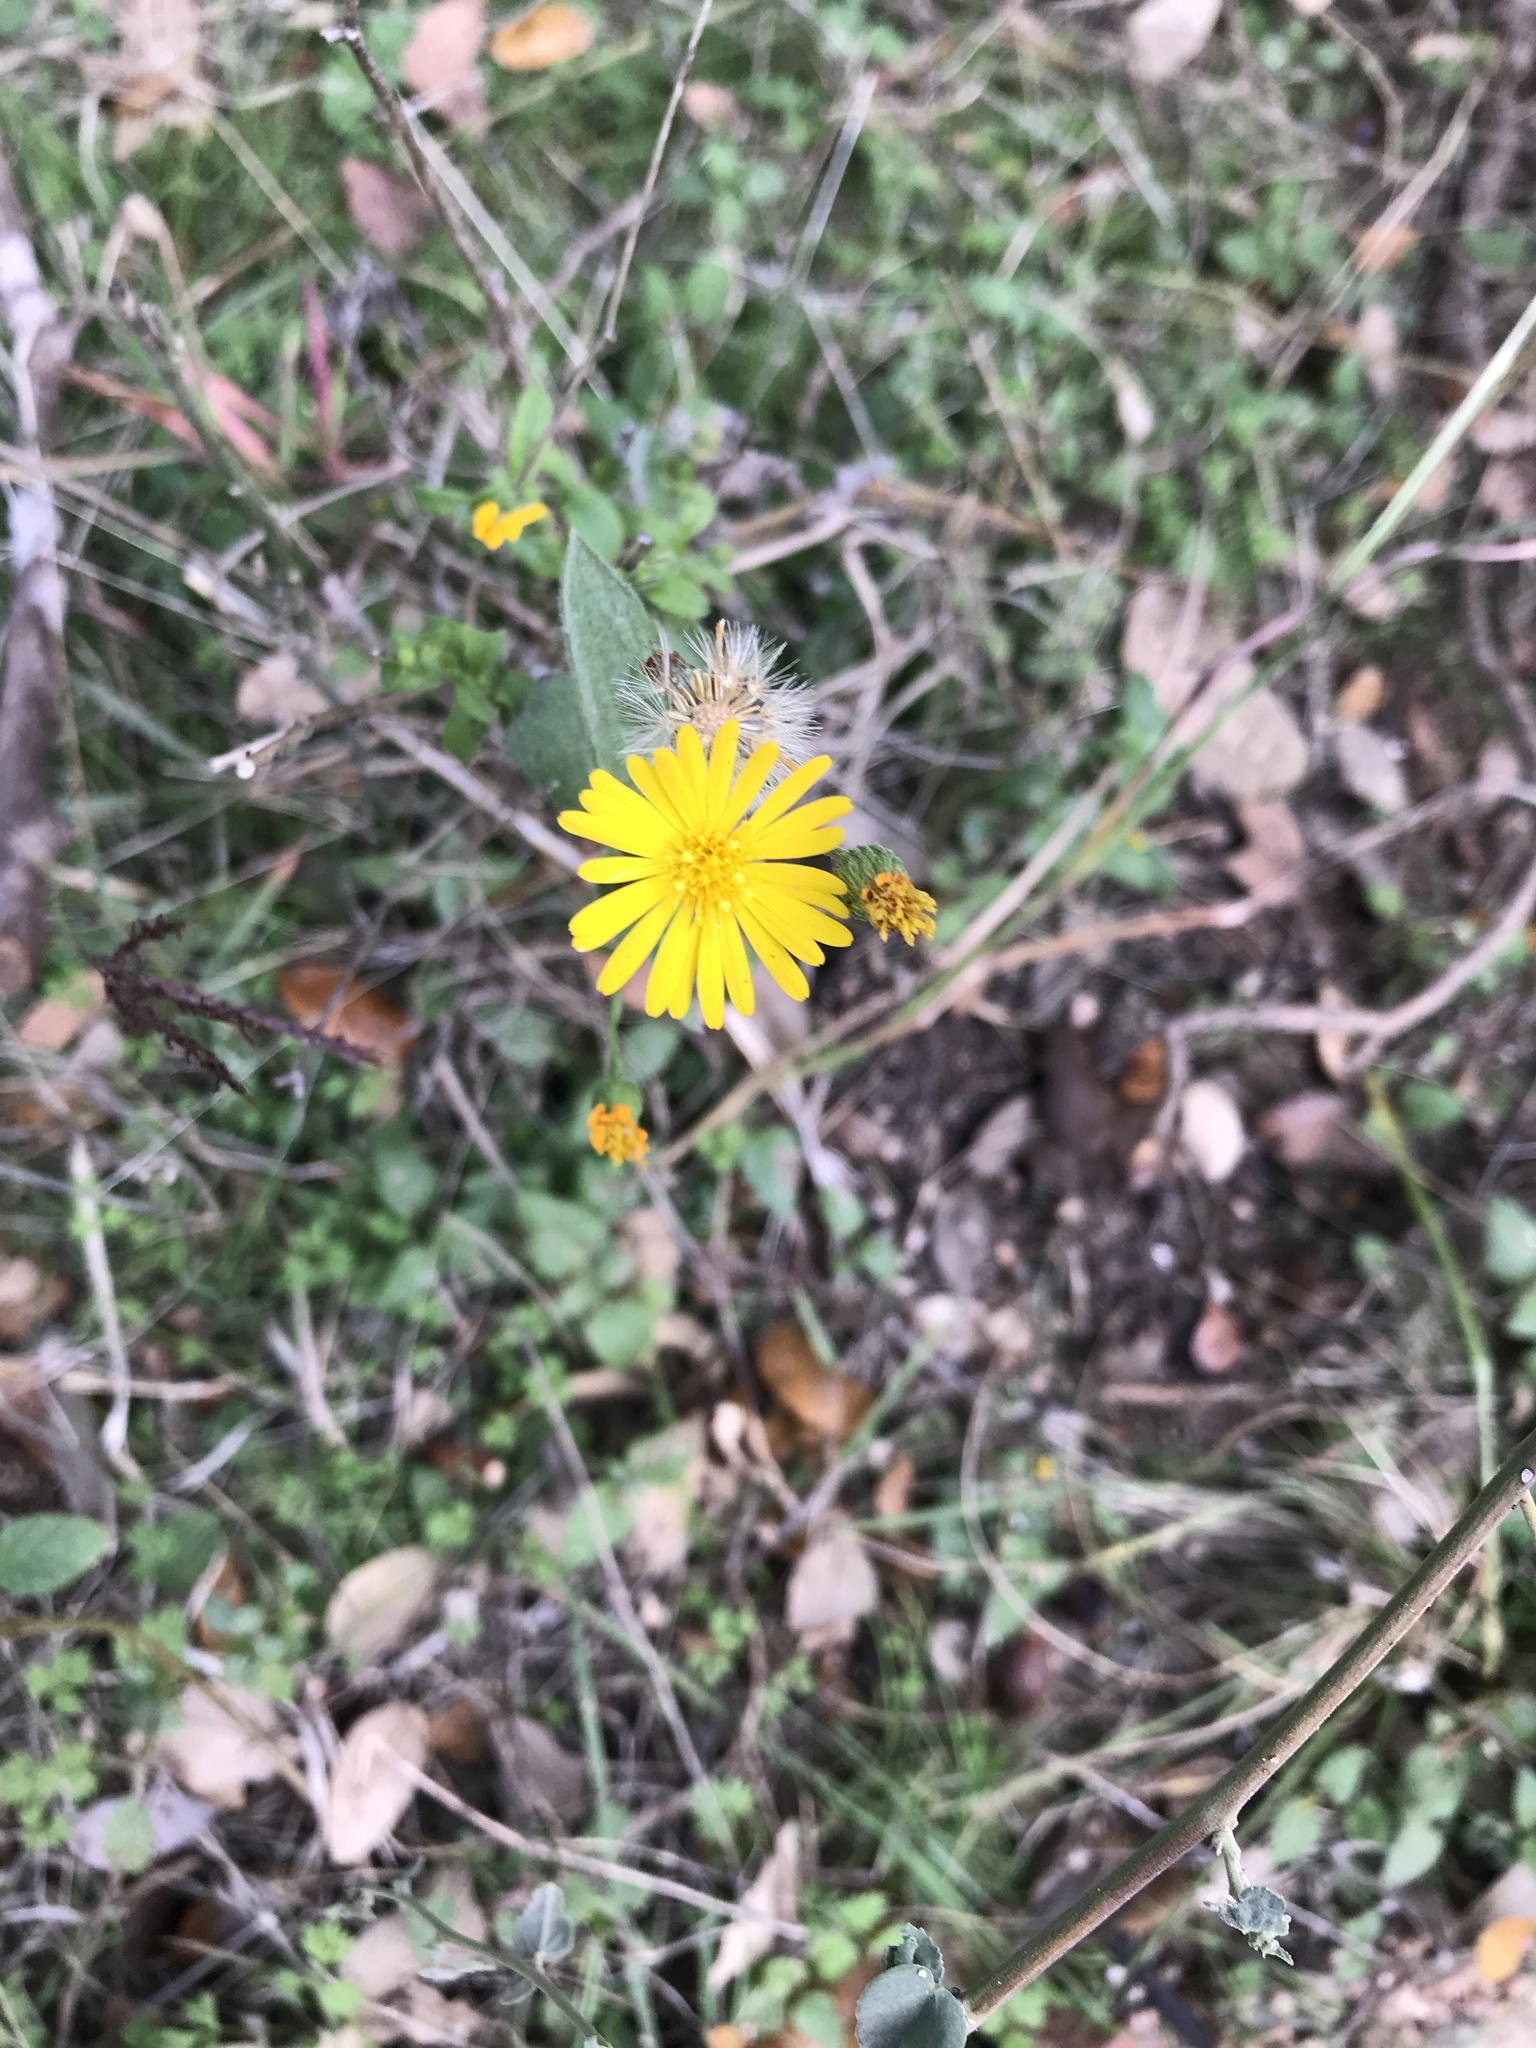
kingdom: Plantae
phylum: Tracheophyta
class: Magnoliopsida
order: Asterales
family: Asteraceae
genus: Heterotheca
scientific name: Heterotheca subaxillaris
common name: Camphorweed
